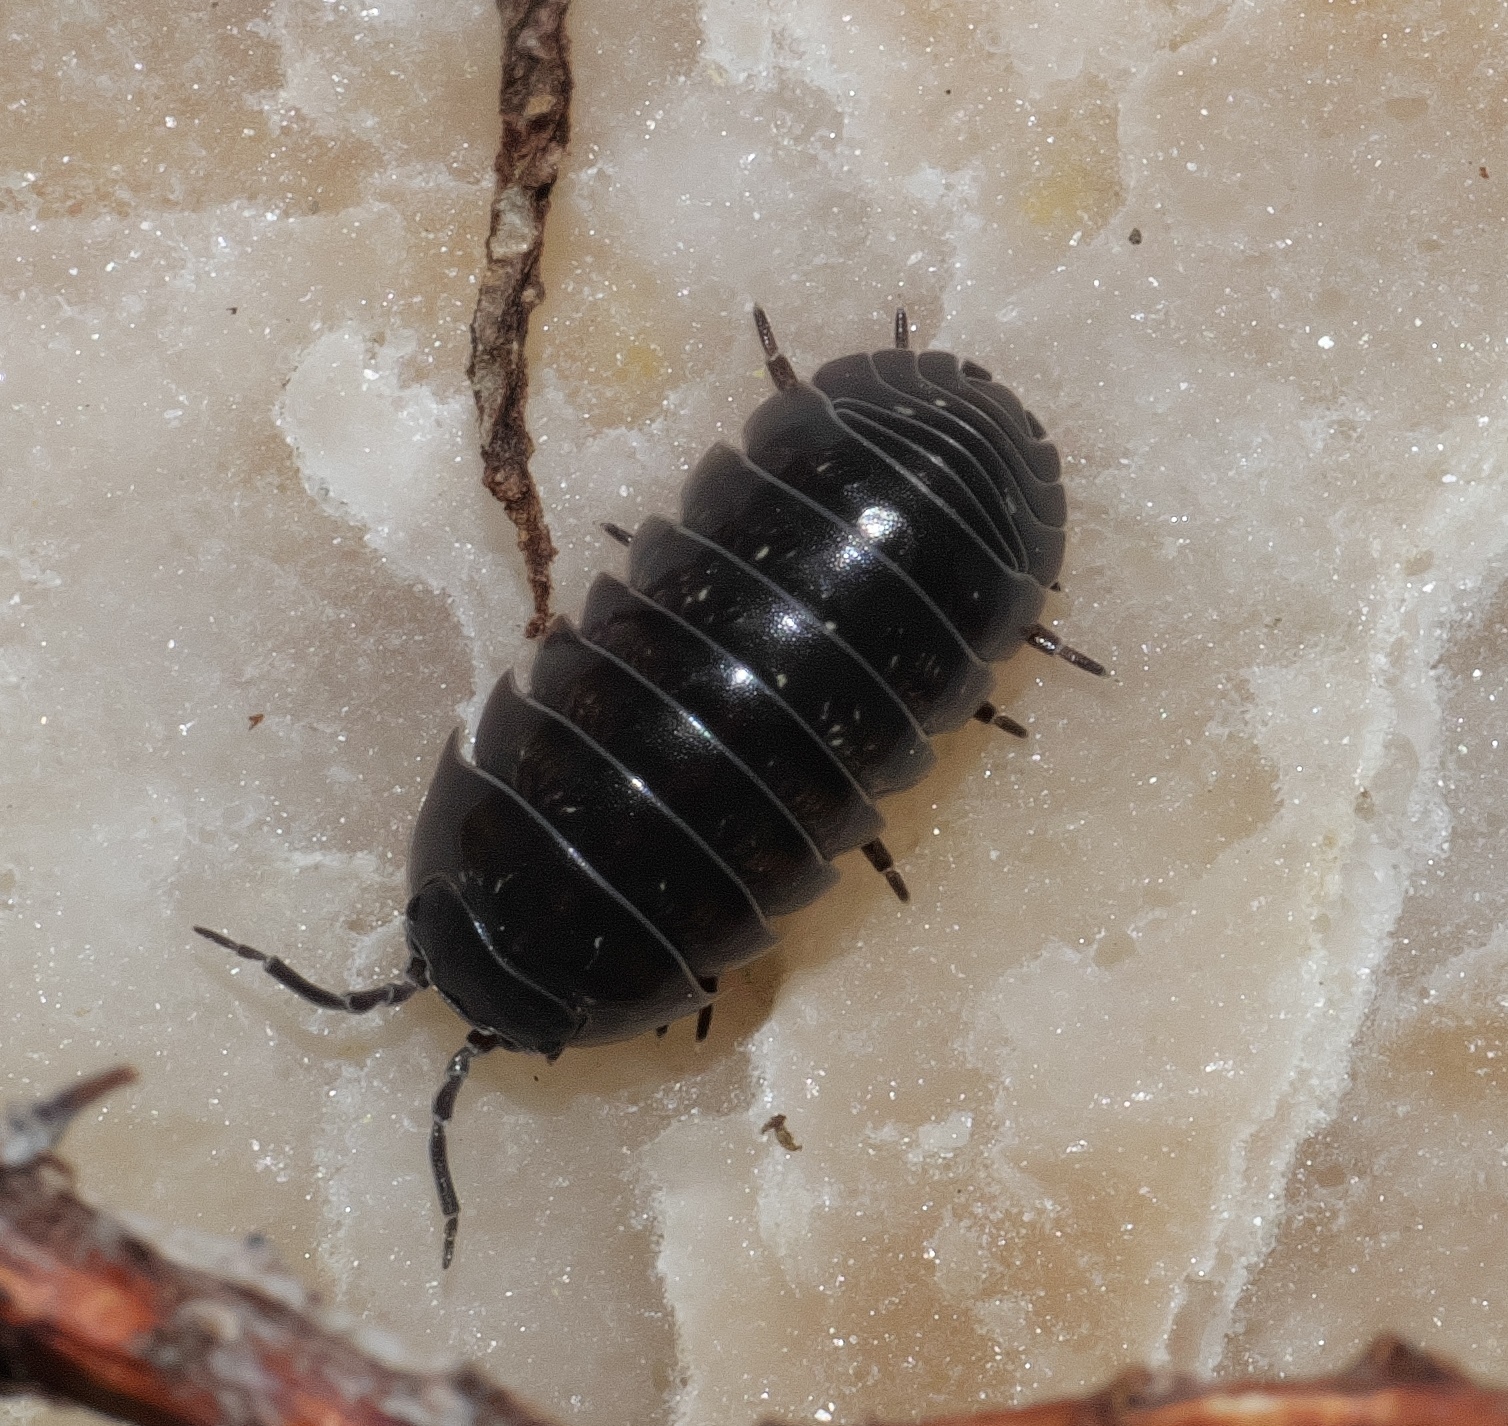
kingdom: Animalia
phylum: Arthropoda
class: Malacostraca
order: Isopoda
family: Armadillidiidae
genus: Armadillidium
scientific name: Armadillidium vulgare
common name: Common pill woodlouse
